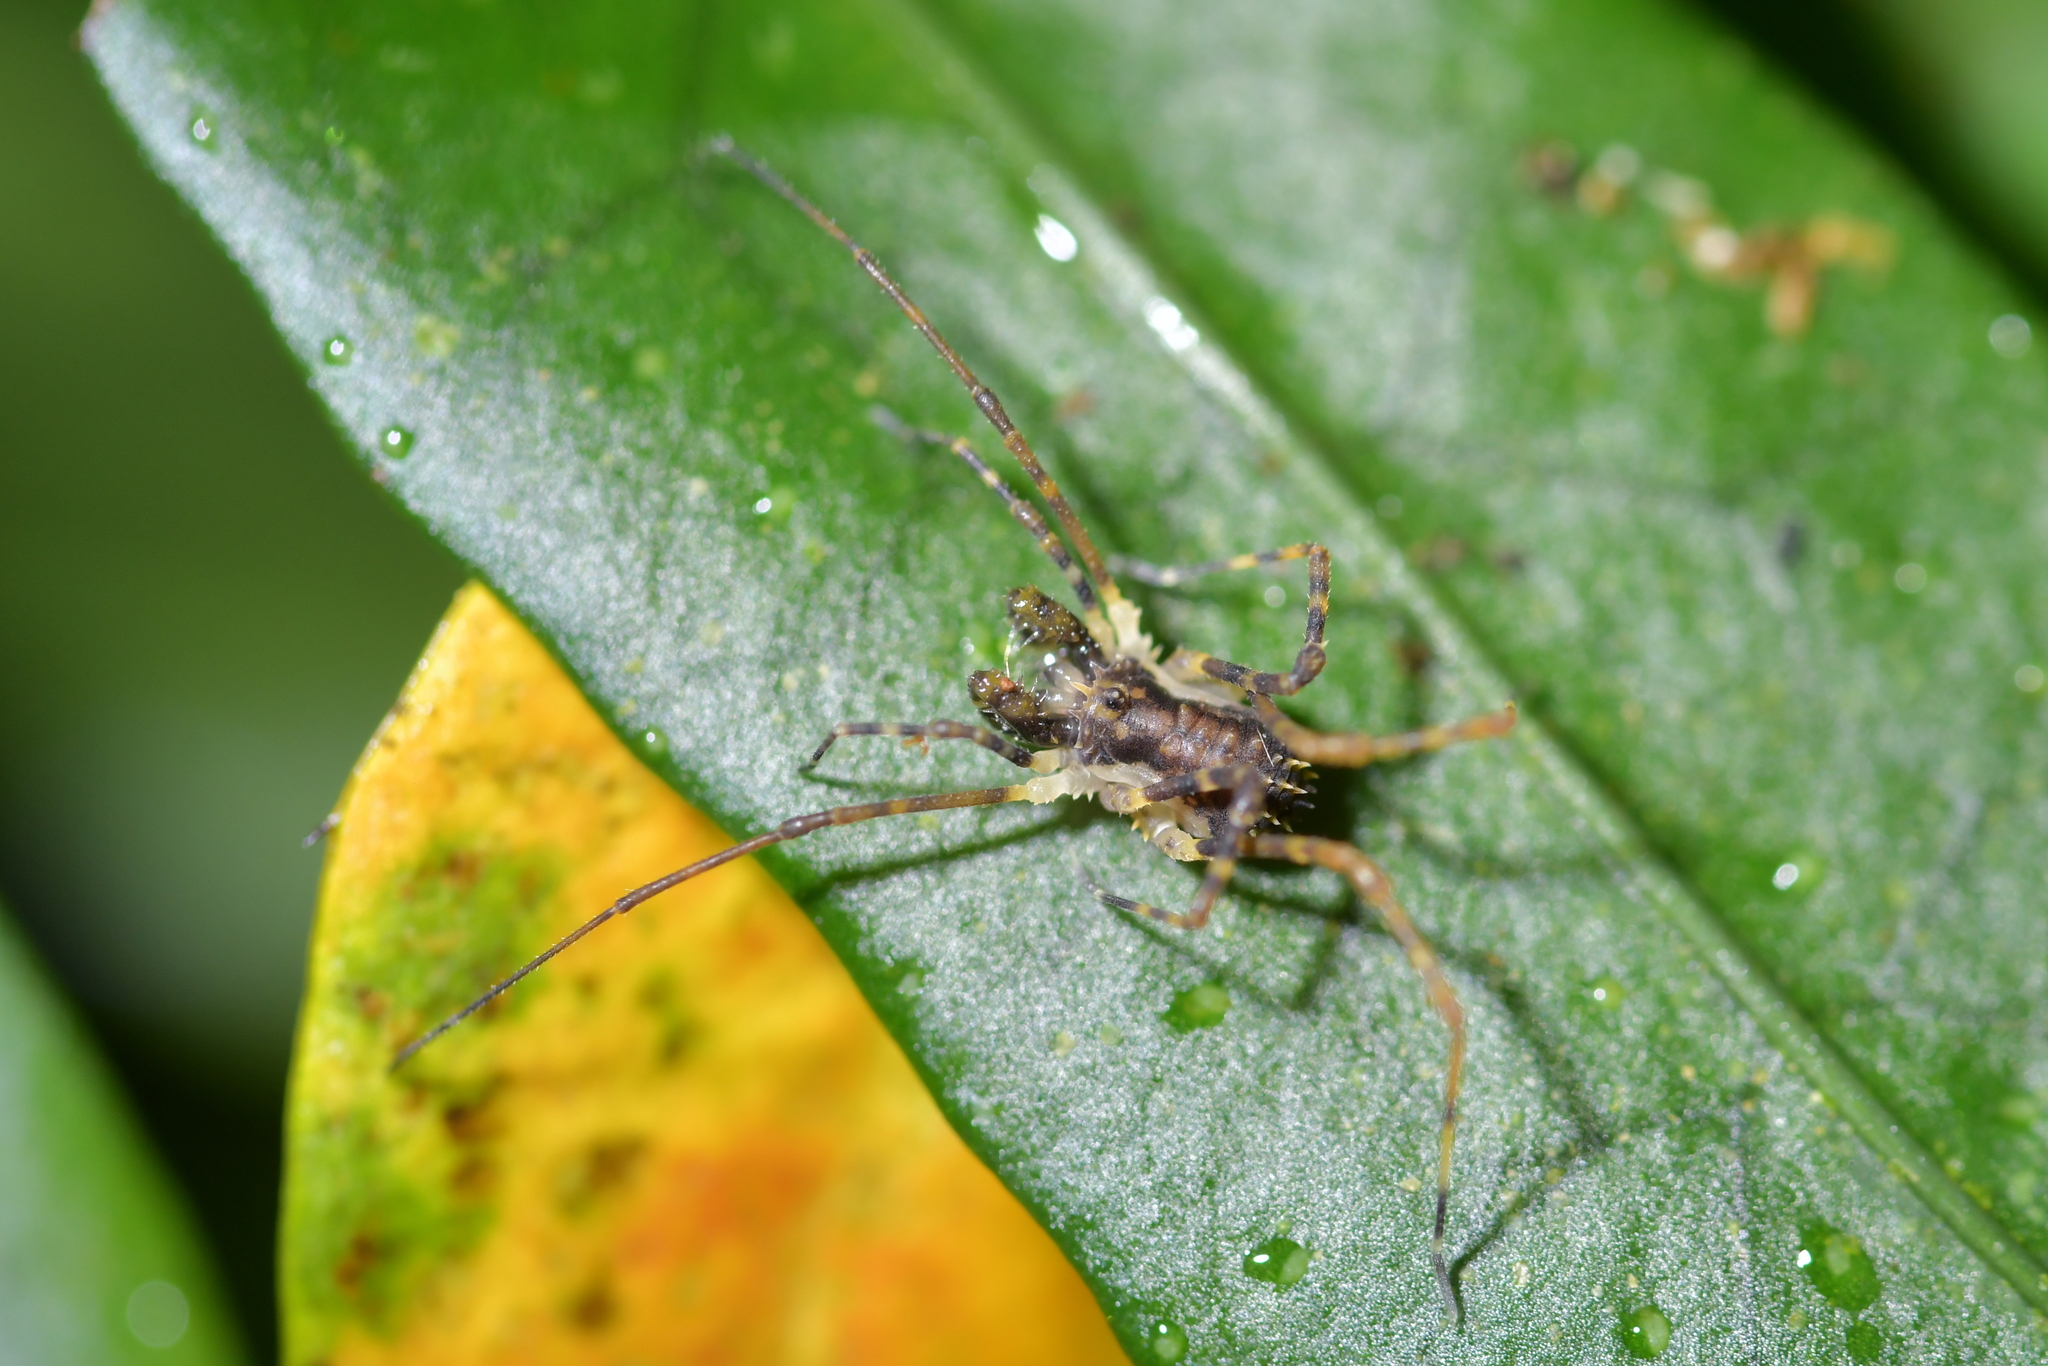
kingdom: Animalia
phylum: Arthropoda
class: Arachnida
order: Opiliones
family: Triaenonychidae
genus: Algidia
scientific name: Algidia nigriflava
